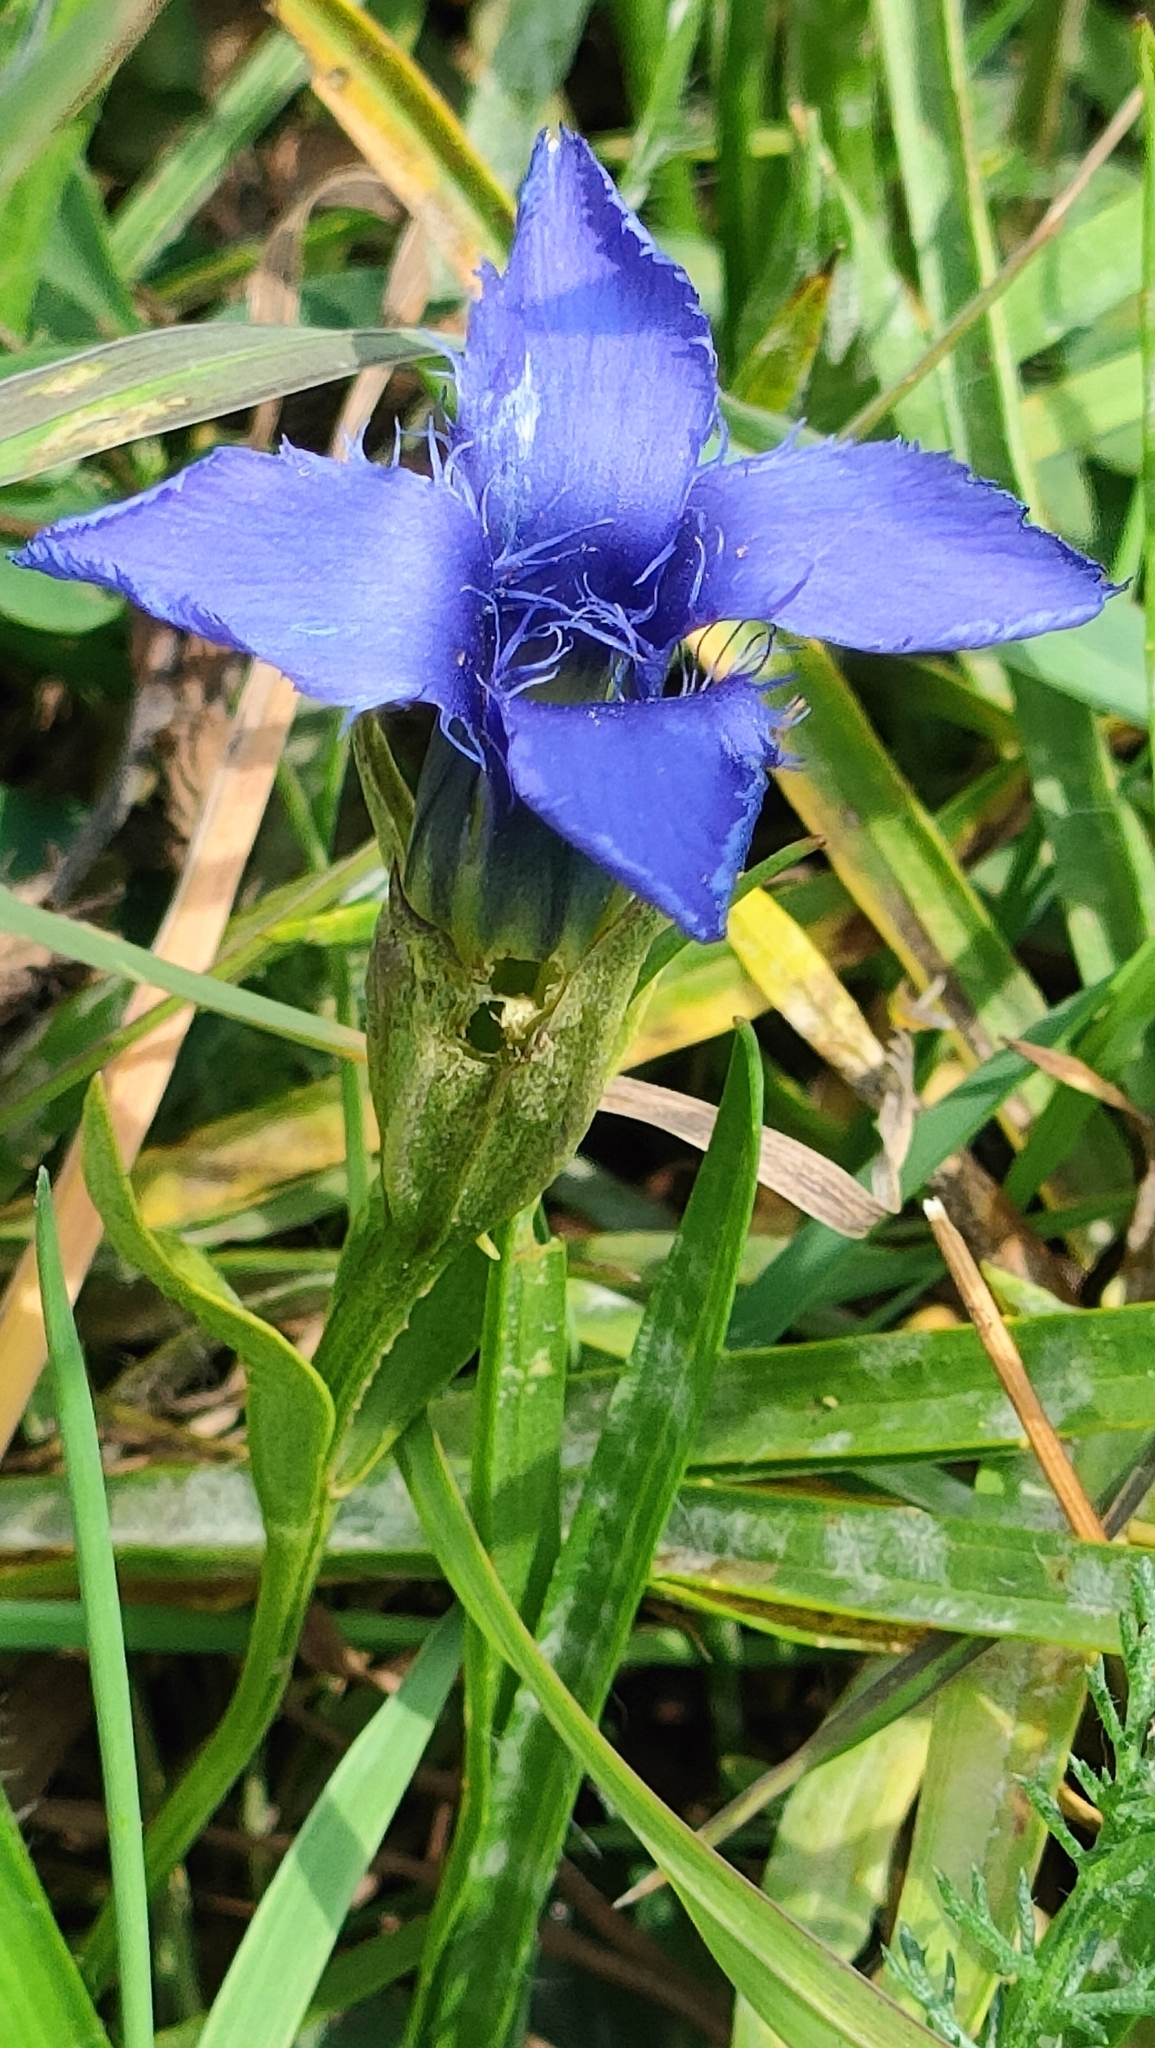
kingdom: Plantae
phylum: Tracheophyta
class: Magnoliopsida
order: Gentianales
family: Gentianaceae
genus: Gentiana
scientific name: Gentiana purpurea
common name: Purple gentian
